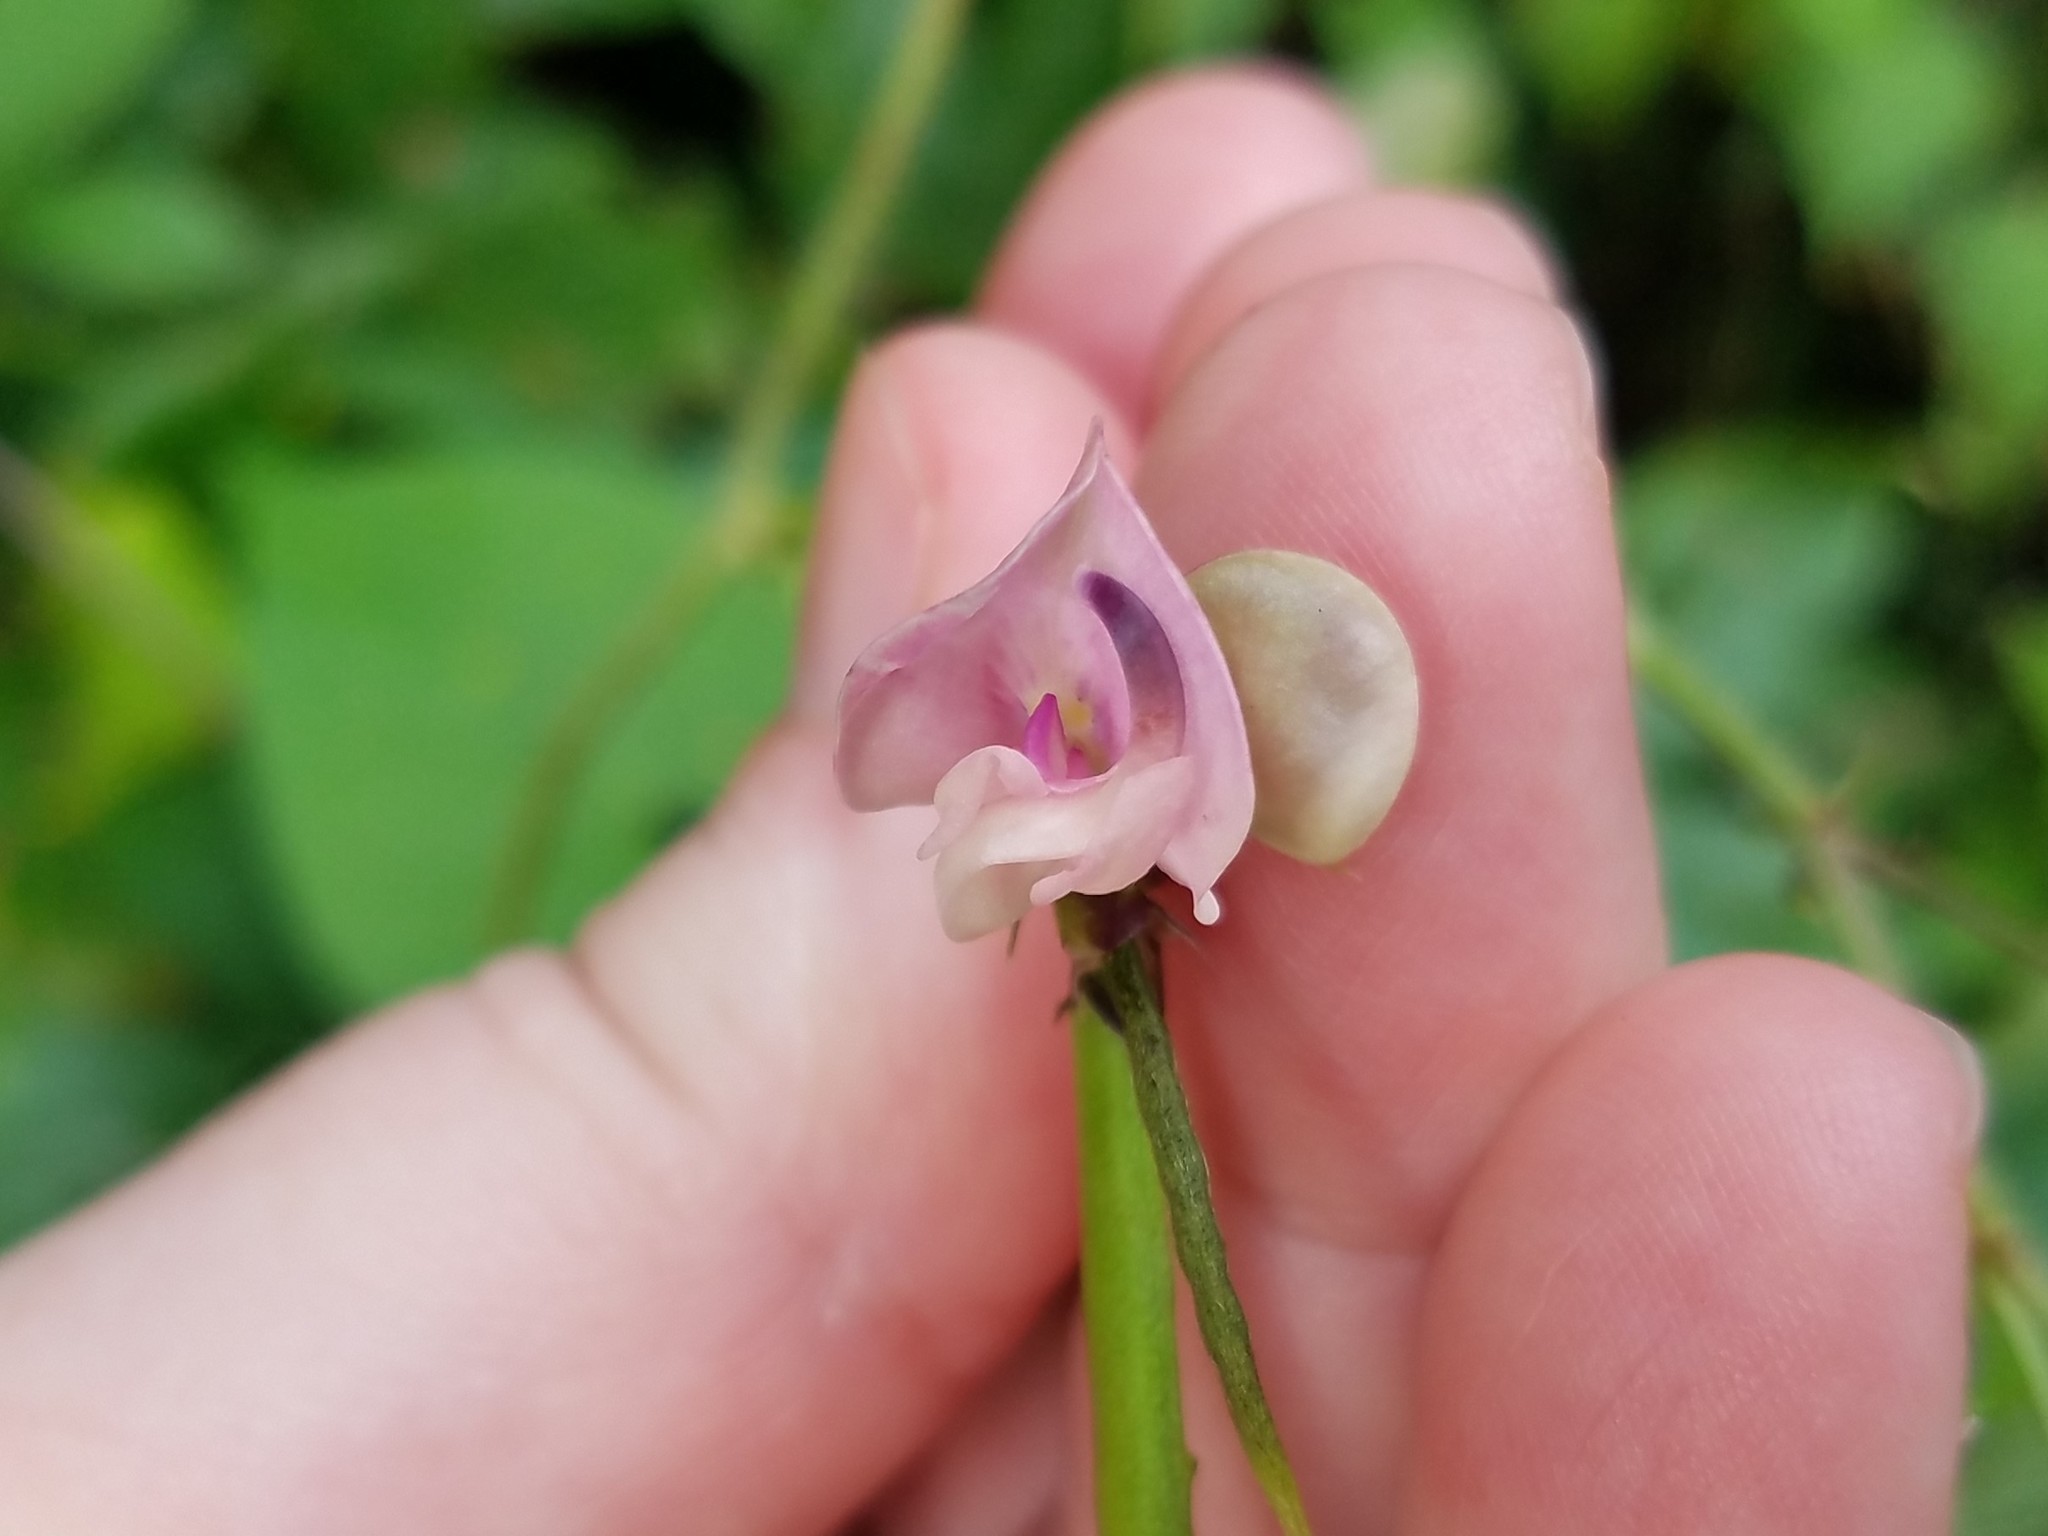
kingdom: Plantae
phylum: Tracheophyta
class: Magnoliopsida
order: Fabales
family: Fabaceae
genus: Strophostyles
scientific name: Strophostyles helvola
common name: Trailing wild bean
